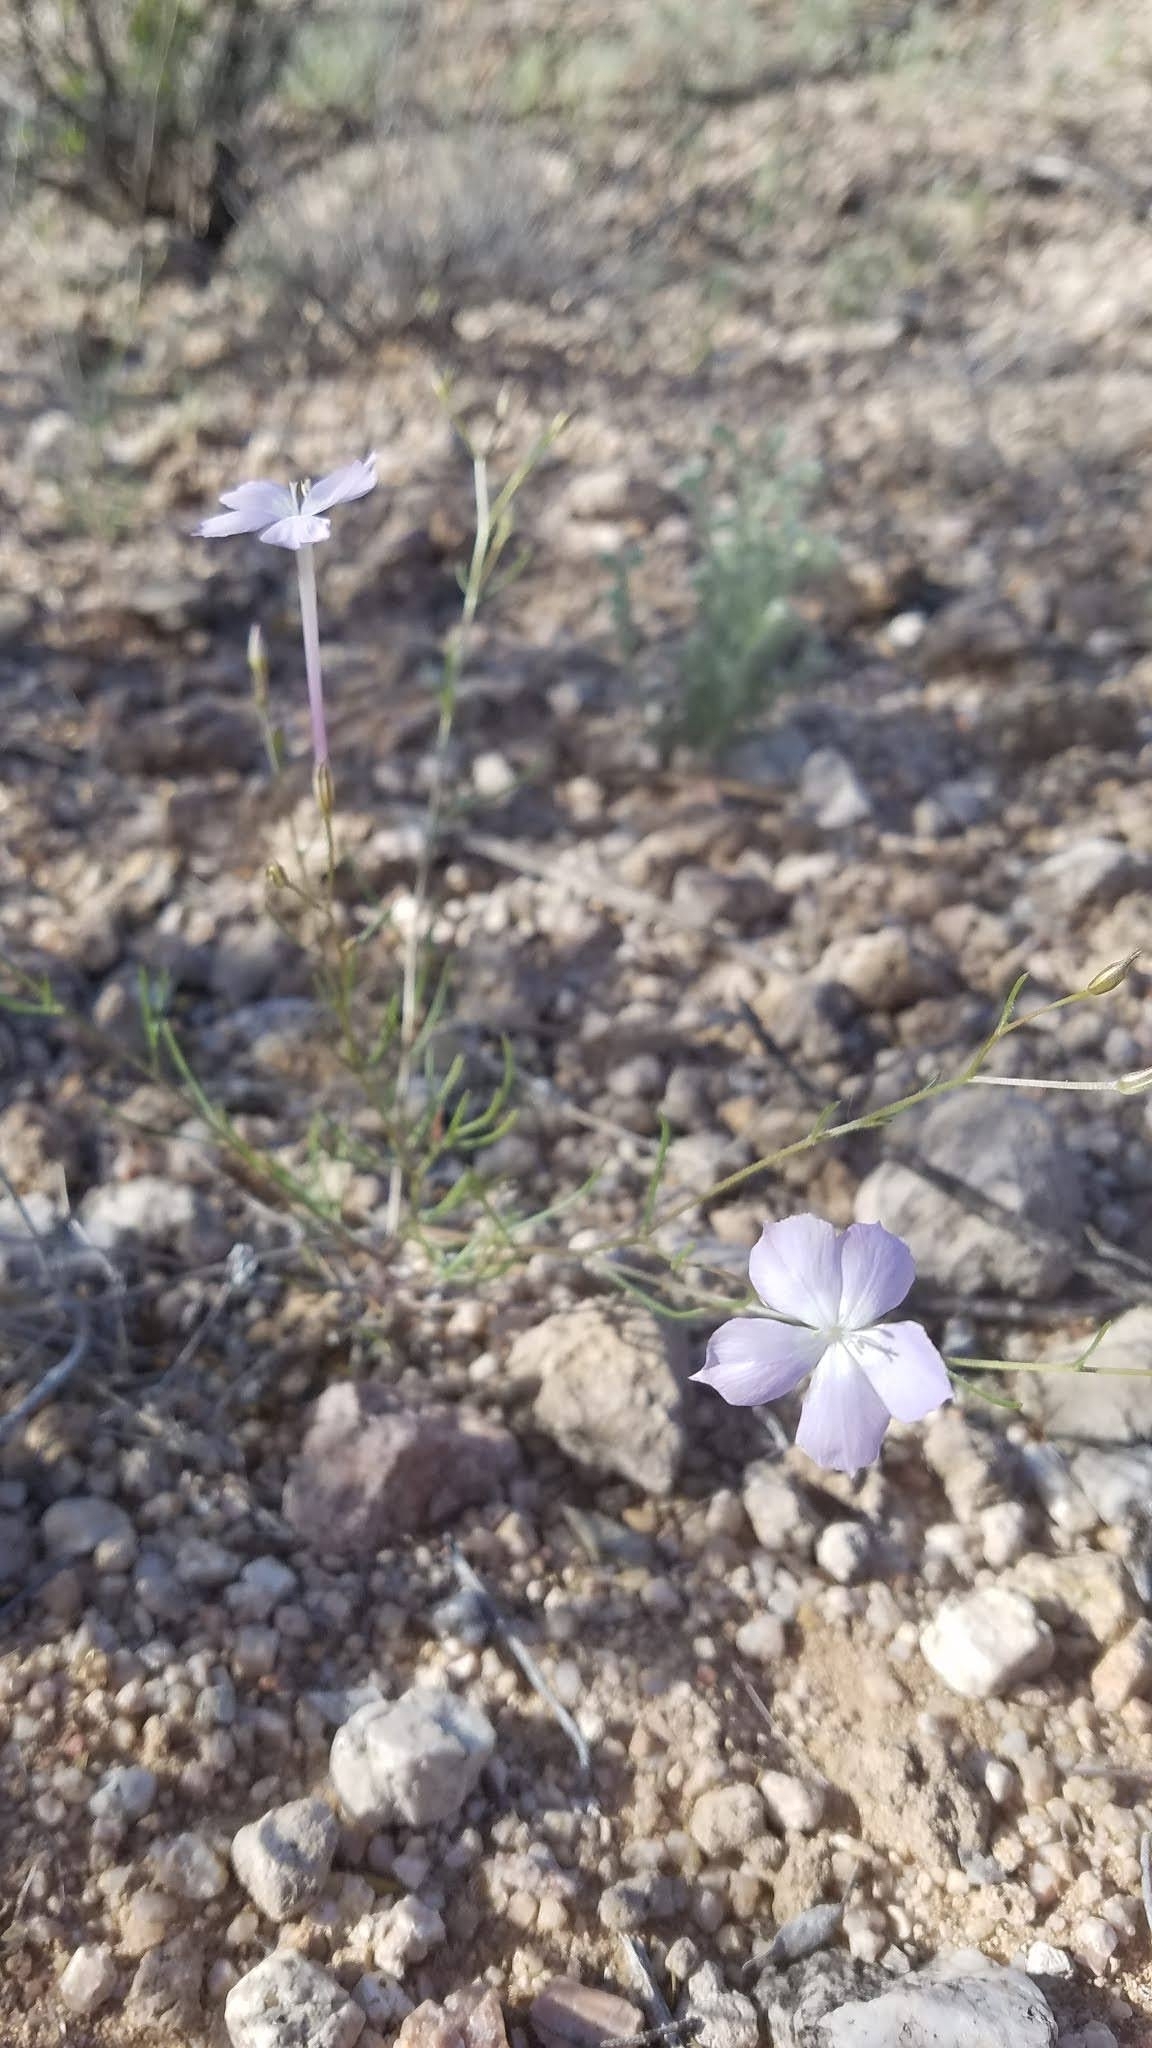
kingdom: Plantae
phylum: Tracheophyta
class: Magnoliopsida
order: Ericales
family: Polemoniaceae
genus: Ipomopsis
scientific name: Ipomopsis longiflora
